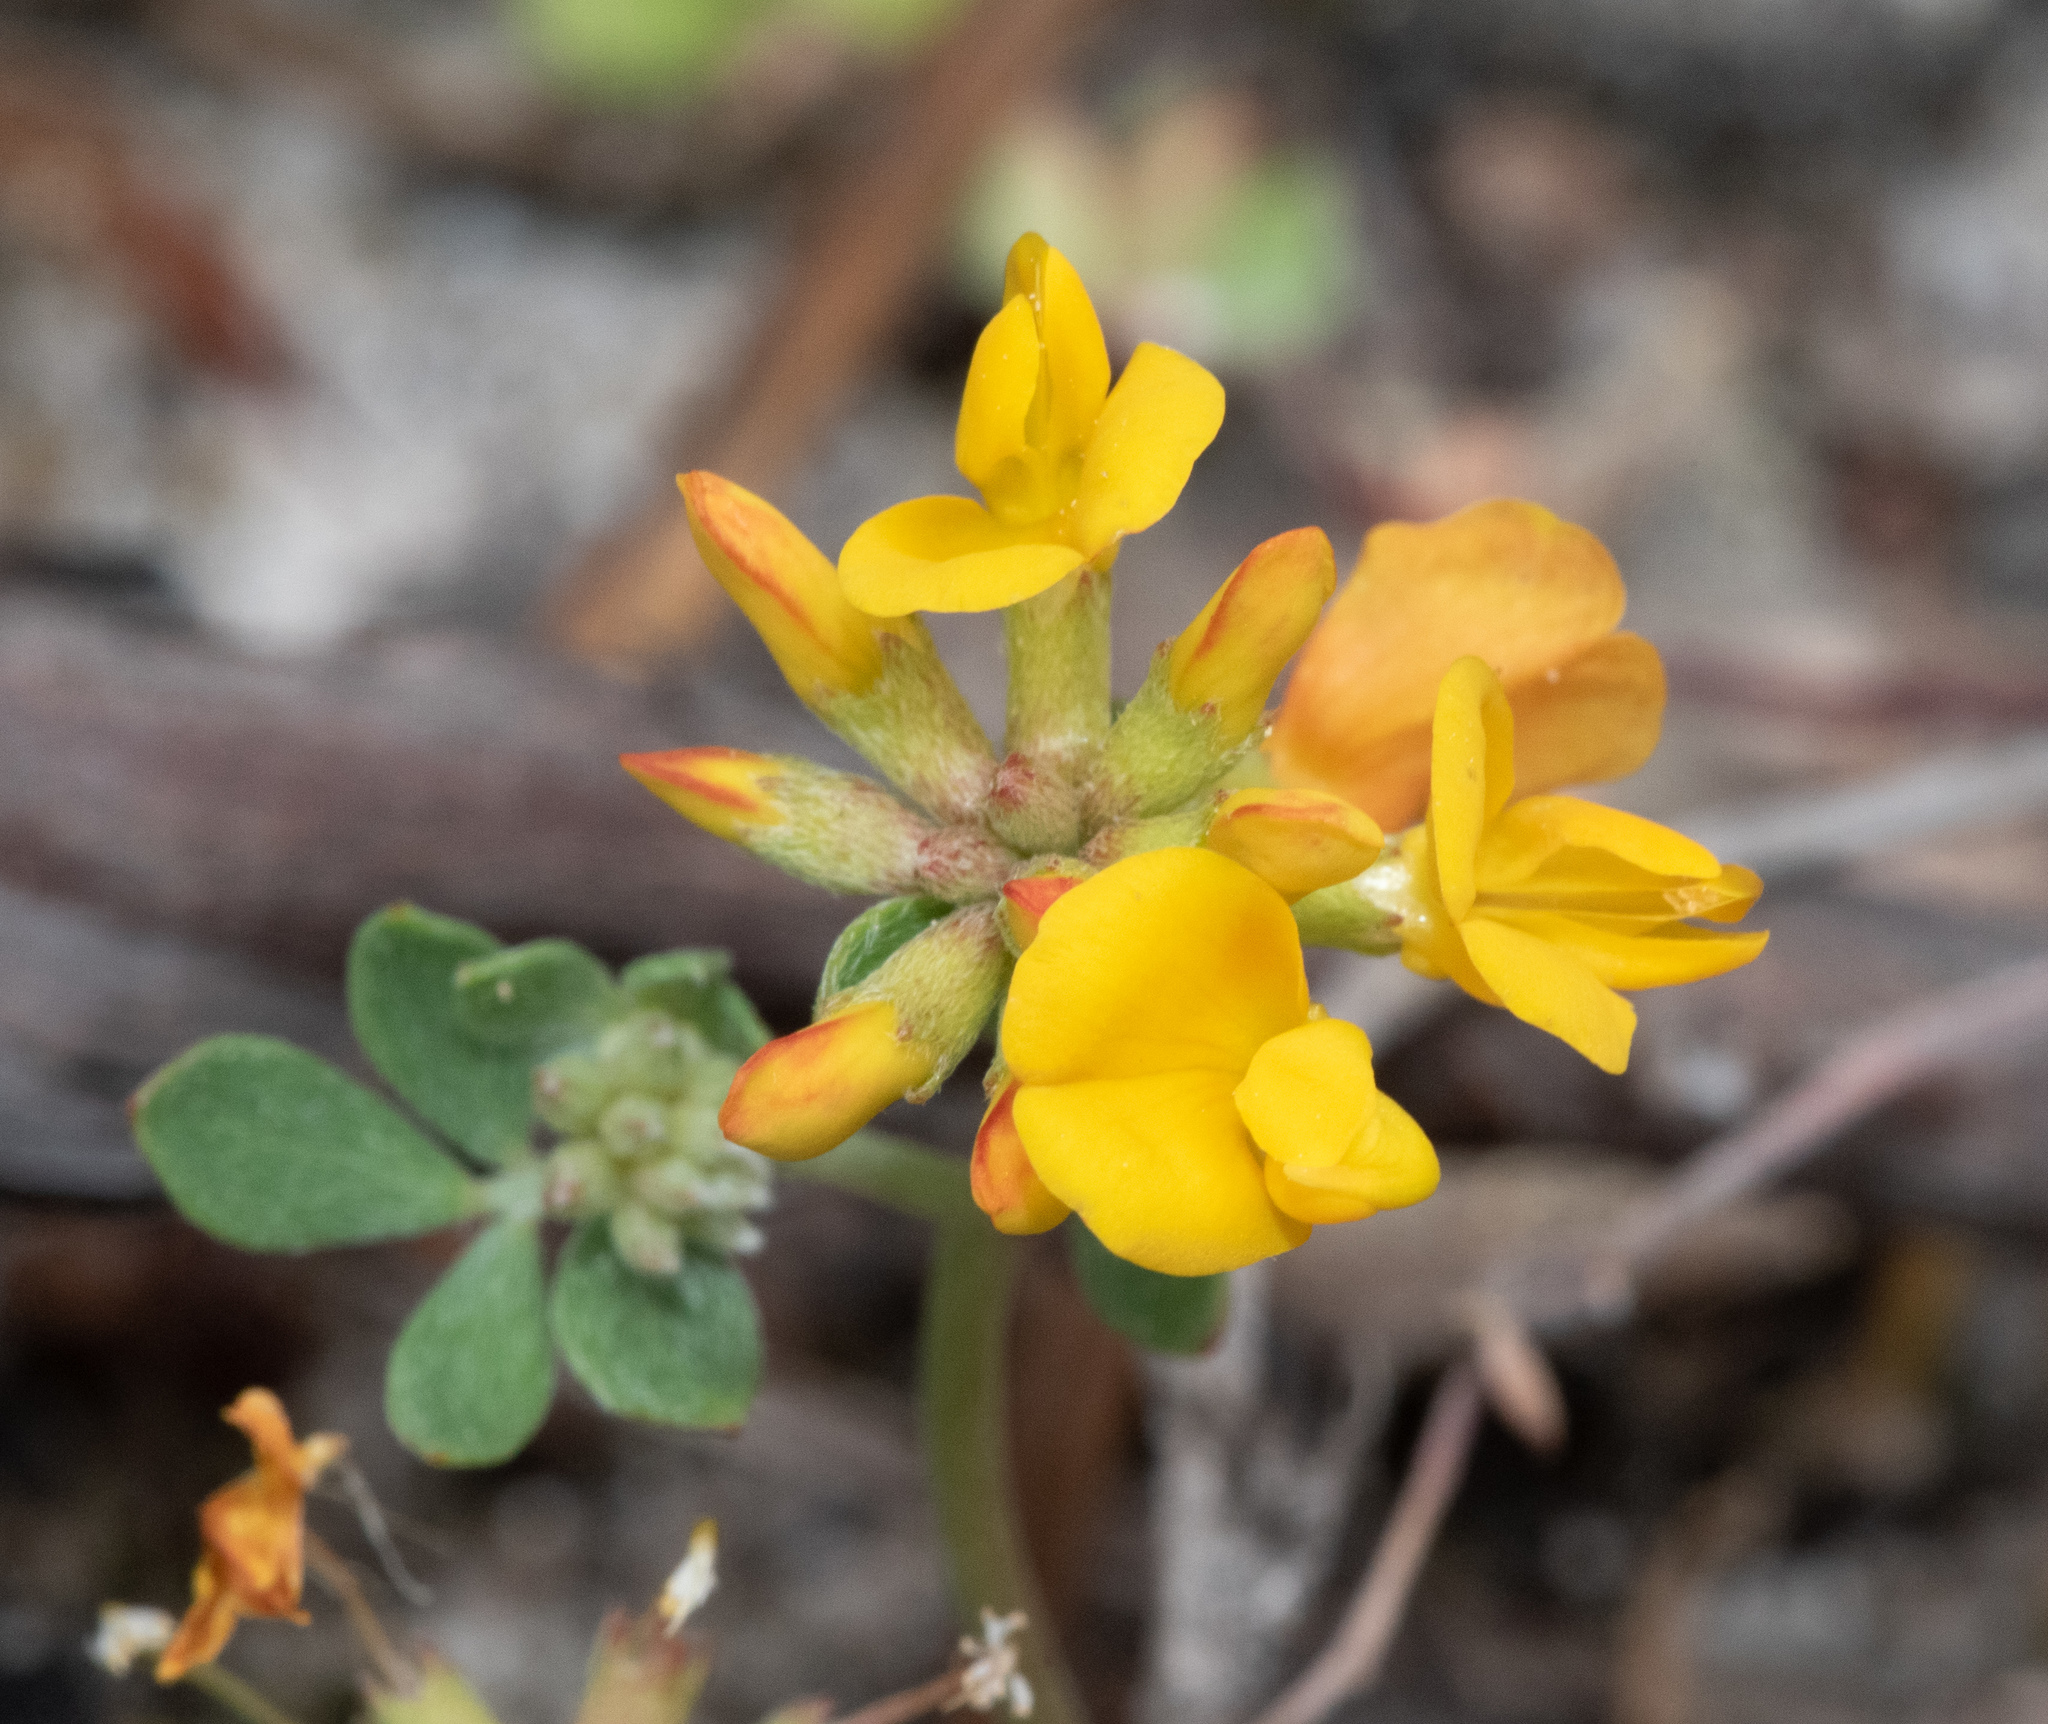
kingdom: Plantae
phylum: Tracheophyta
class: Magnoliopsida
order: Fabales
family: Fabaceae
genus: Acmispon
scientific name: Acmispon junceus
